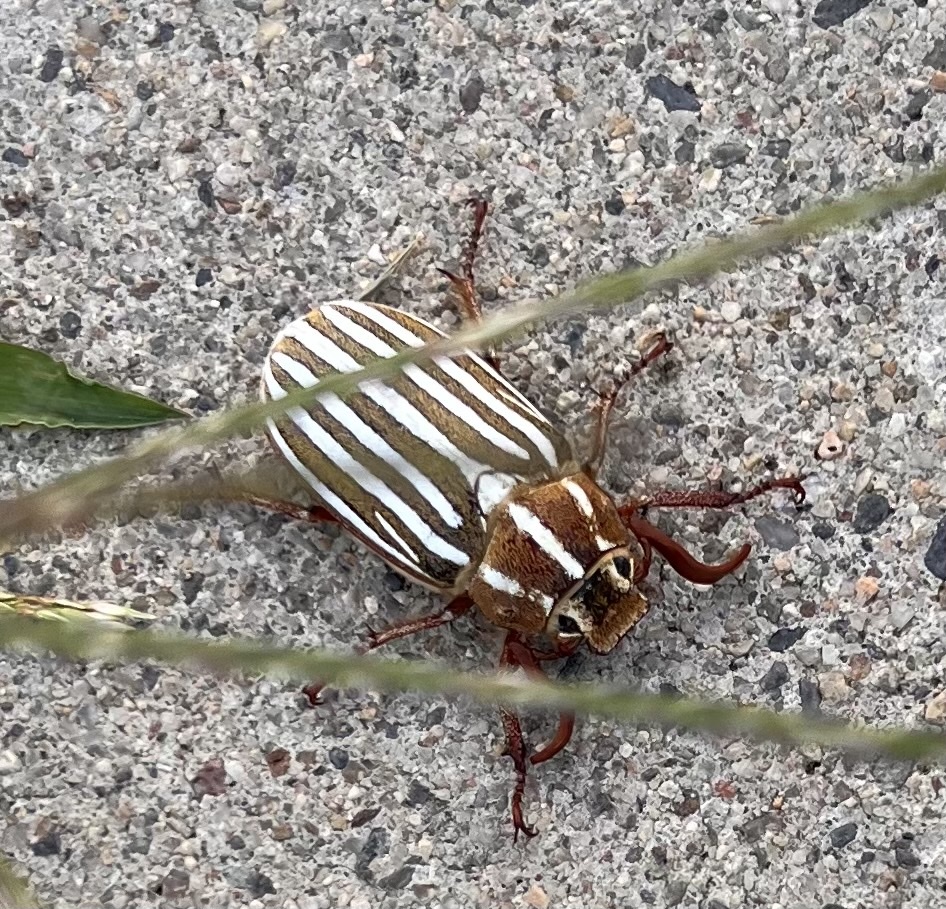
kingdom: Animalia
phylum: Arthropoda
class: Insecta
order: Coleoptera
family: Scarabaeidae
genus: Polyphylla
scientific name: Polyphylla decemlineata
